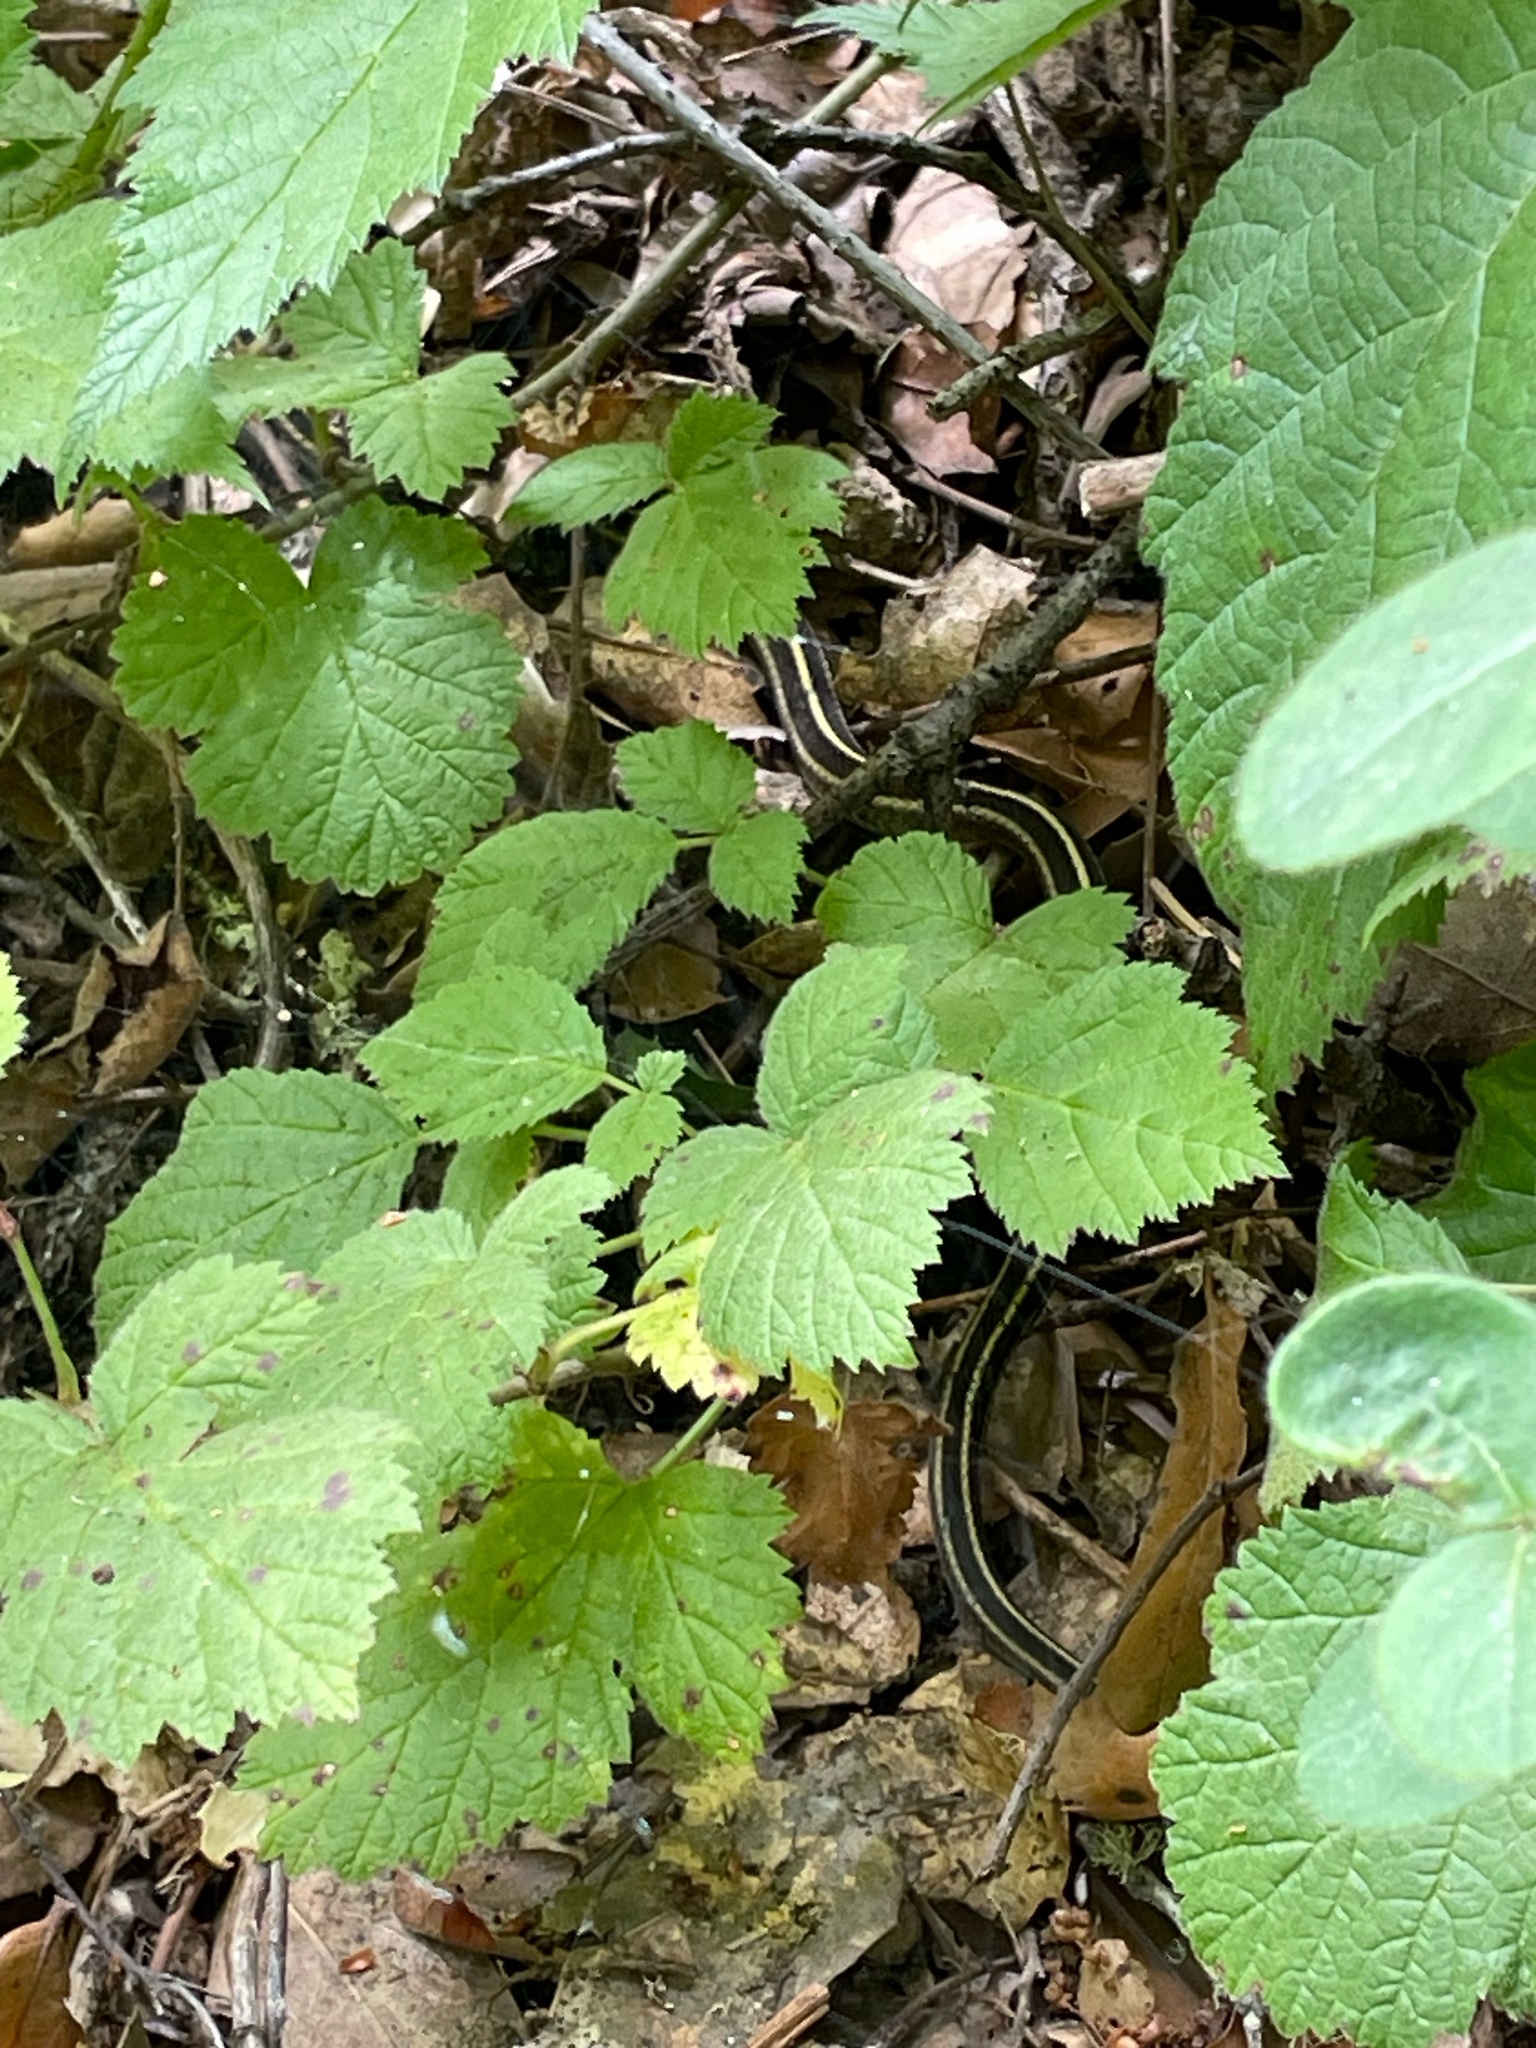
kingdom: Animalia
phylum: Chordata
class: Squamata
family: Colubridae
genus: Thamnophis
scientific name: Thamnophis elegans
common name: Western terrestrial garter snake
